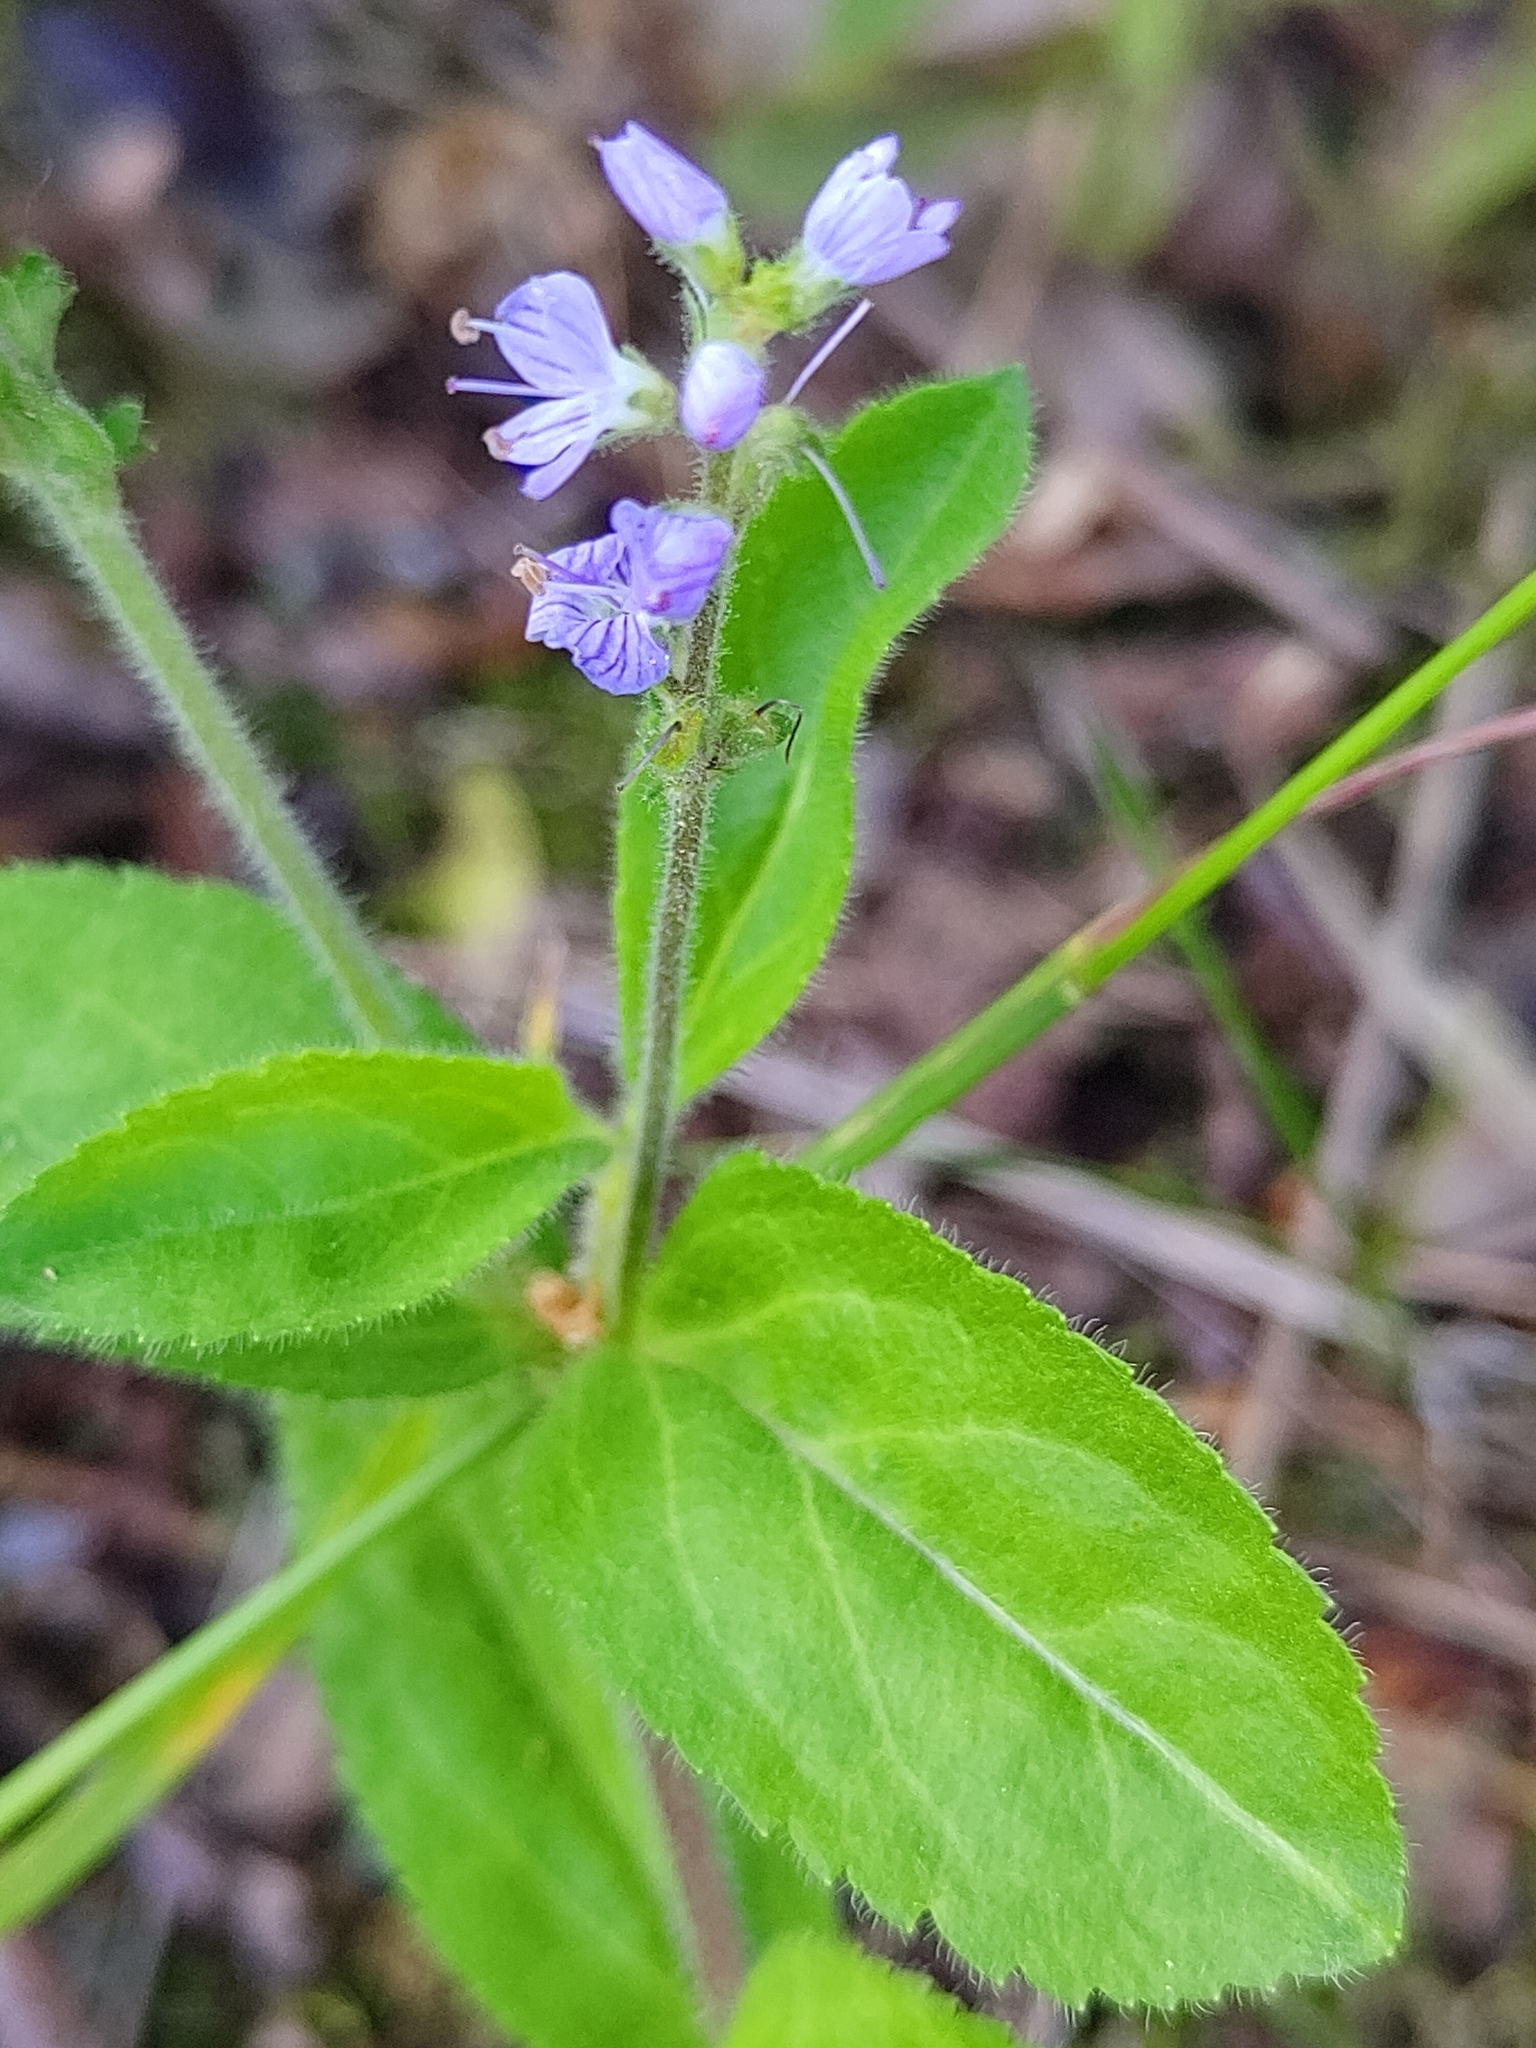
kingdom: Plantae
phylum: Tracheophyta
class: Magnoliopsida
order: Lamiales
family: Plantaginaceae
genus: Veronica
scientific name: Veronica officinalis
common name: Common speedwell
